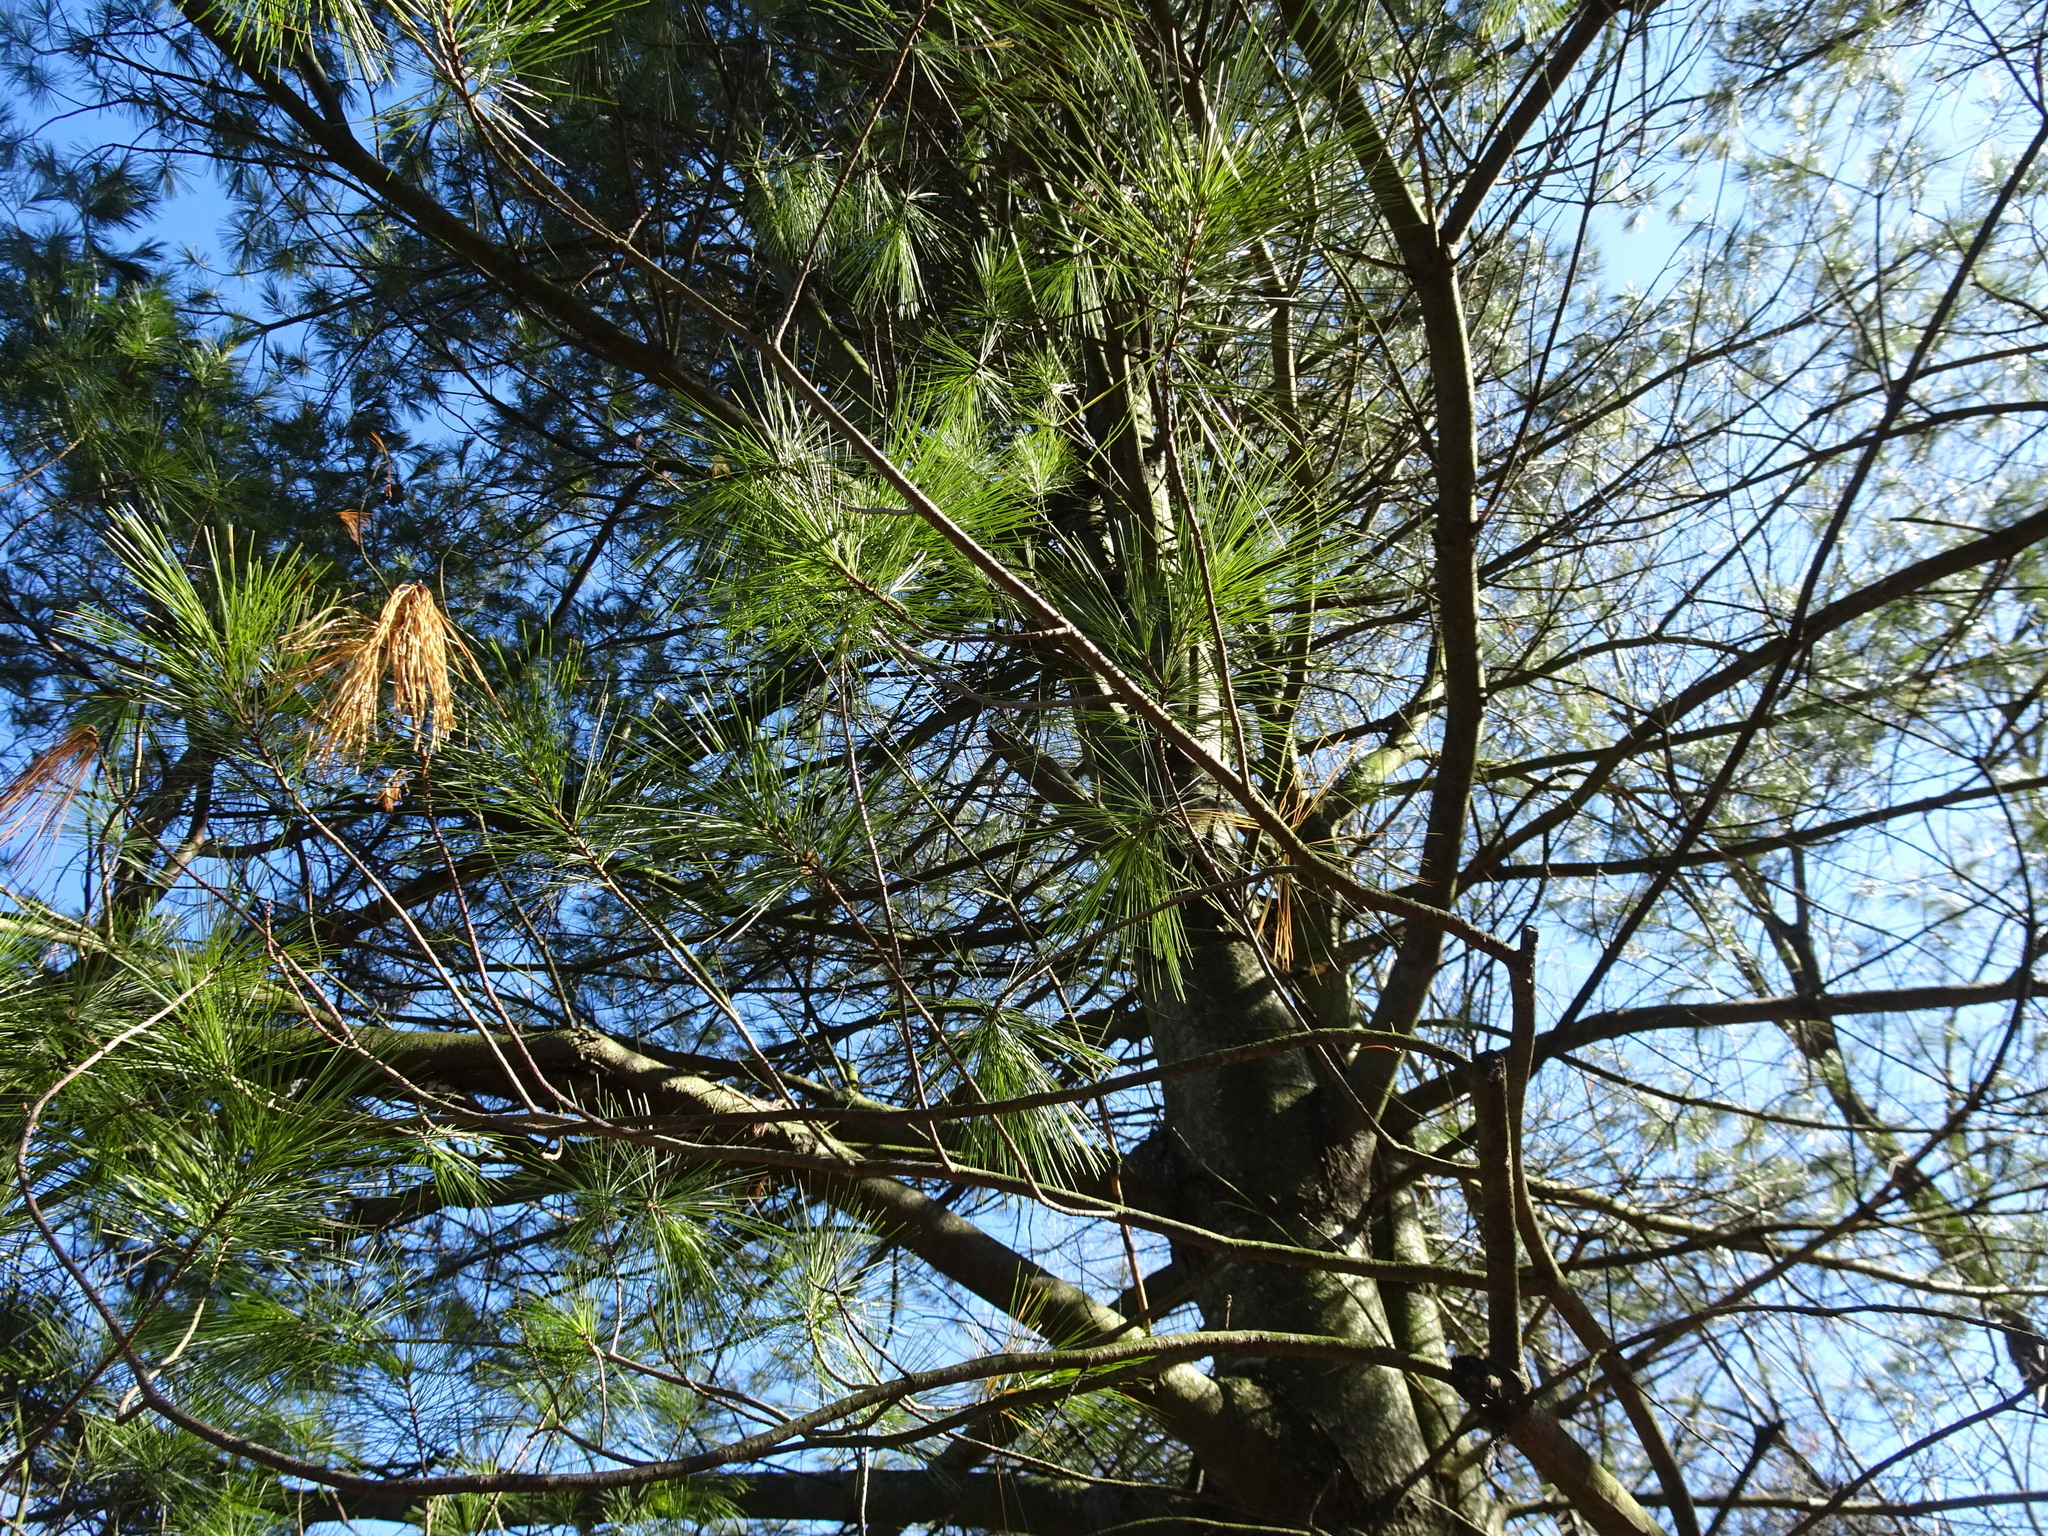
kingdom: Plantae
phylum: Tracheophyta
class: Pinopsida
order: Pinales
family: Pinaceae
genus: Pinus
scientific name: Pinus strobus
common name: Weymouth pine
